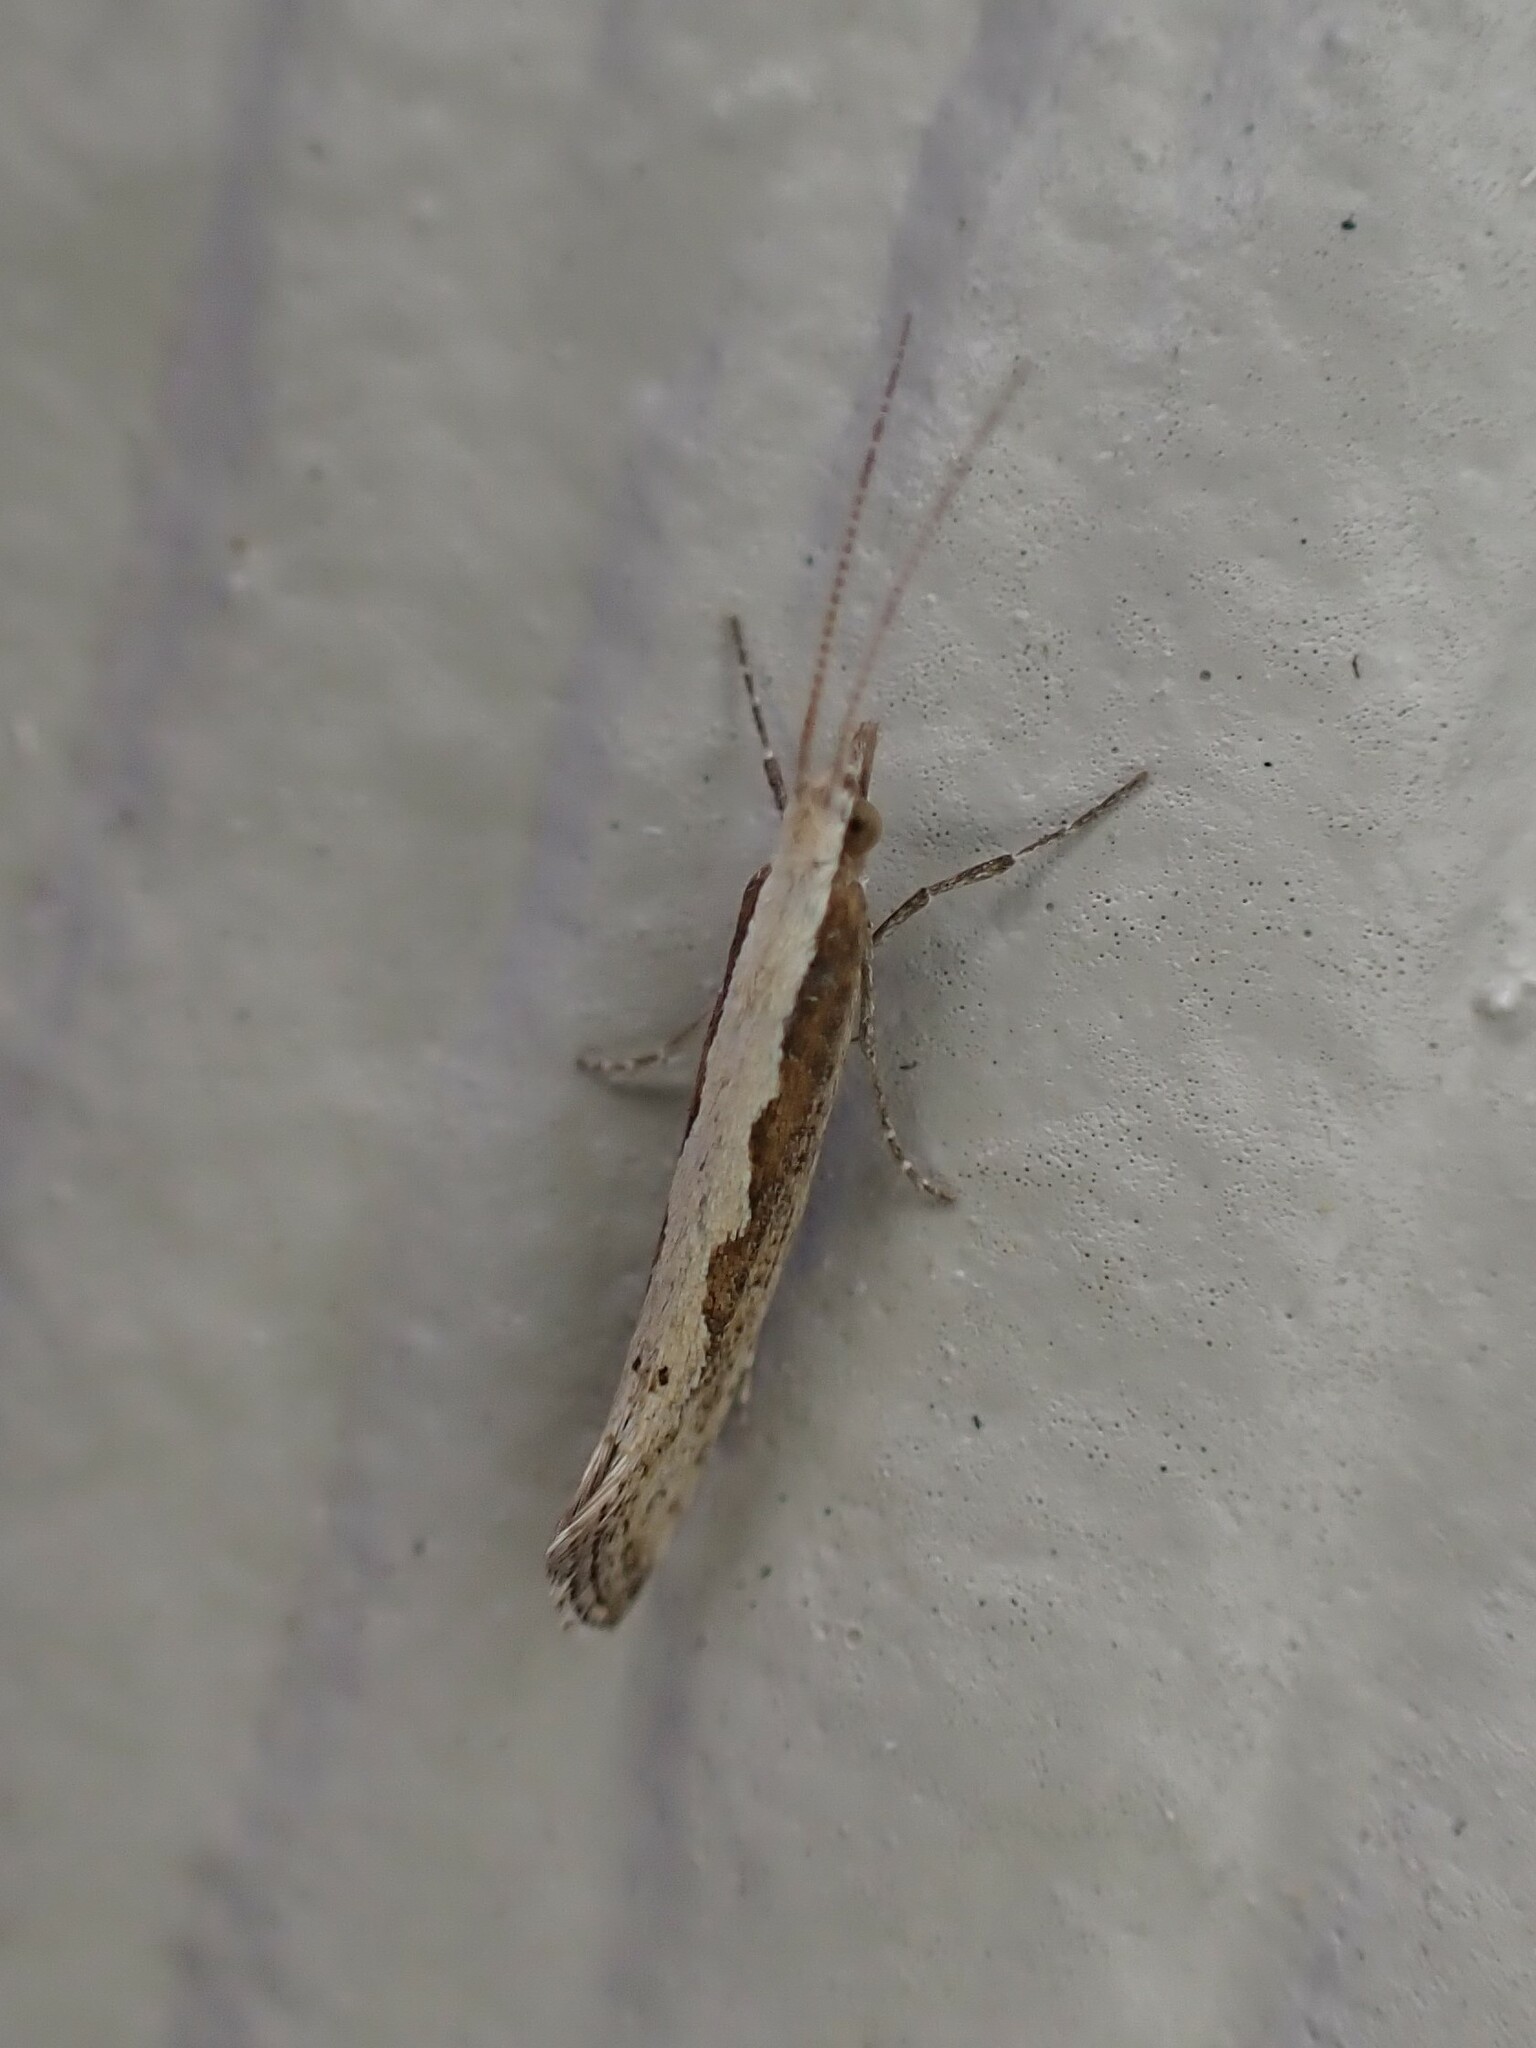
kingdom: Animalia
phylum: Arthropoda
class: Insecta
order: Lepidoptera
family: Plutellidae
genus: Plutella
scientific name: Plutella xylostella
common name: Diamond-back moth
